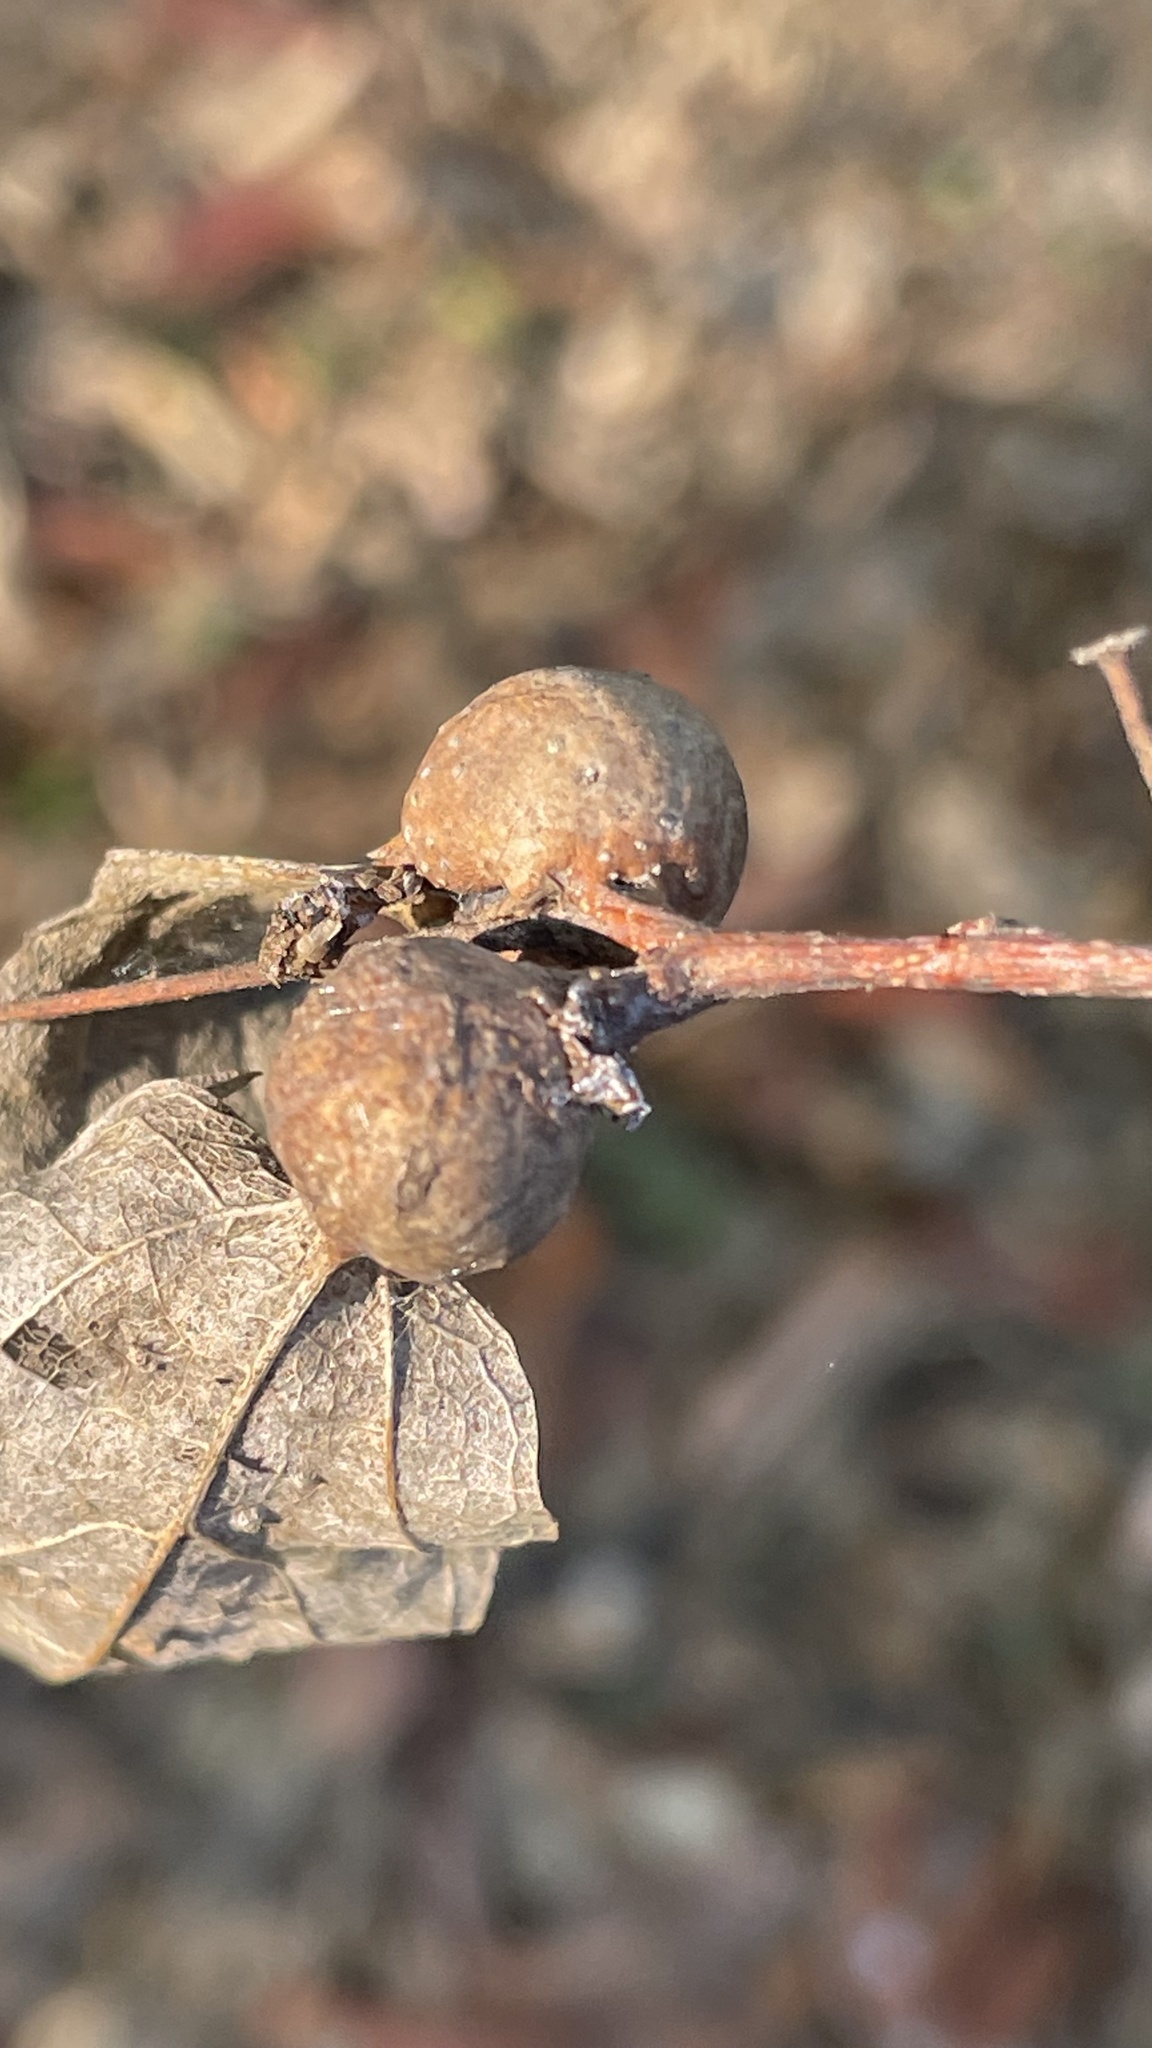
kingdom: Animalia
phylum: Arthropoda
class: Insecta
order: Hemiptera
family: Aphalaridae
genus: Pachypsylla
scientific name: Pachypsylla venusta
